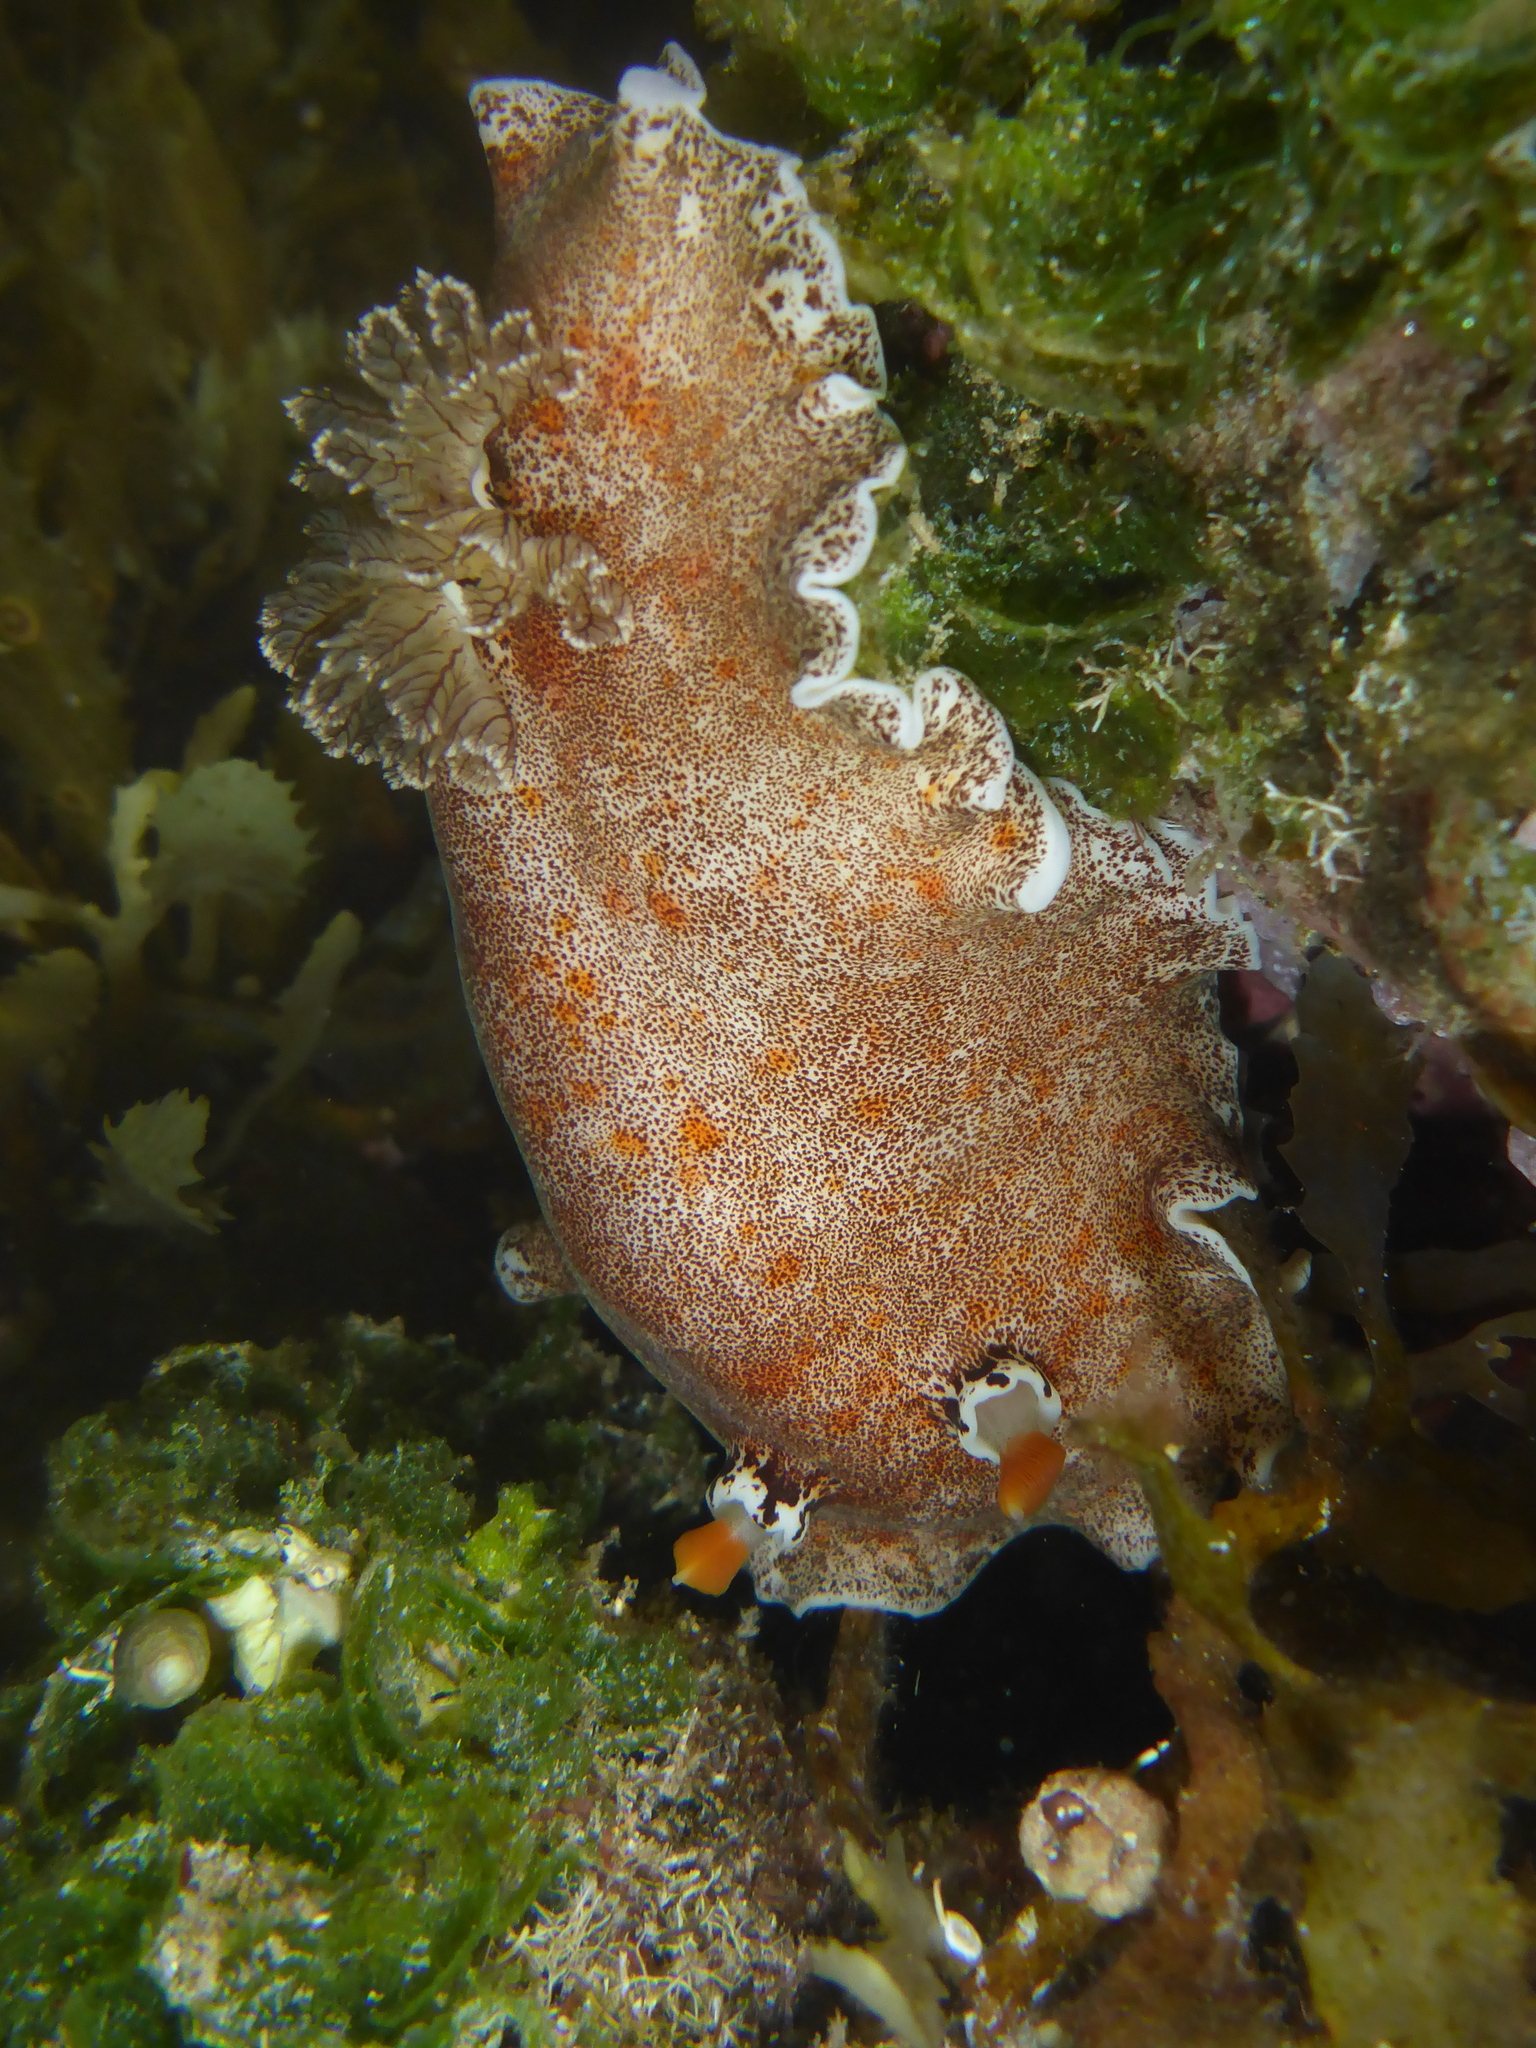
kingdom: Animalia
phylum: Mollusca
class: Gastropoda
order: Nudibranchia
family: Discodorididae
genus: Platydoris
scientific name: Platydoris formosa
